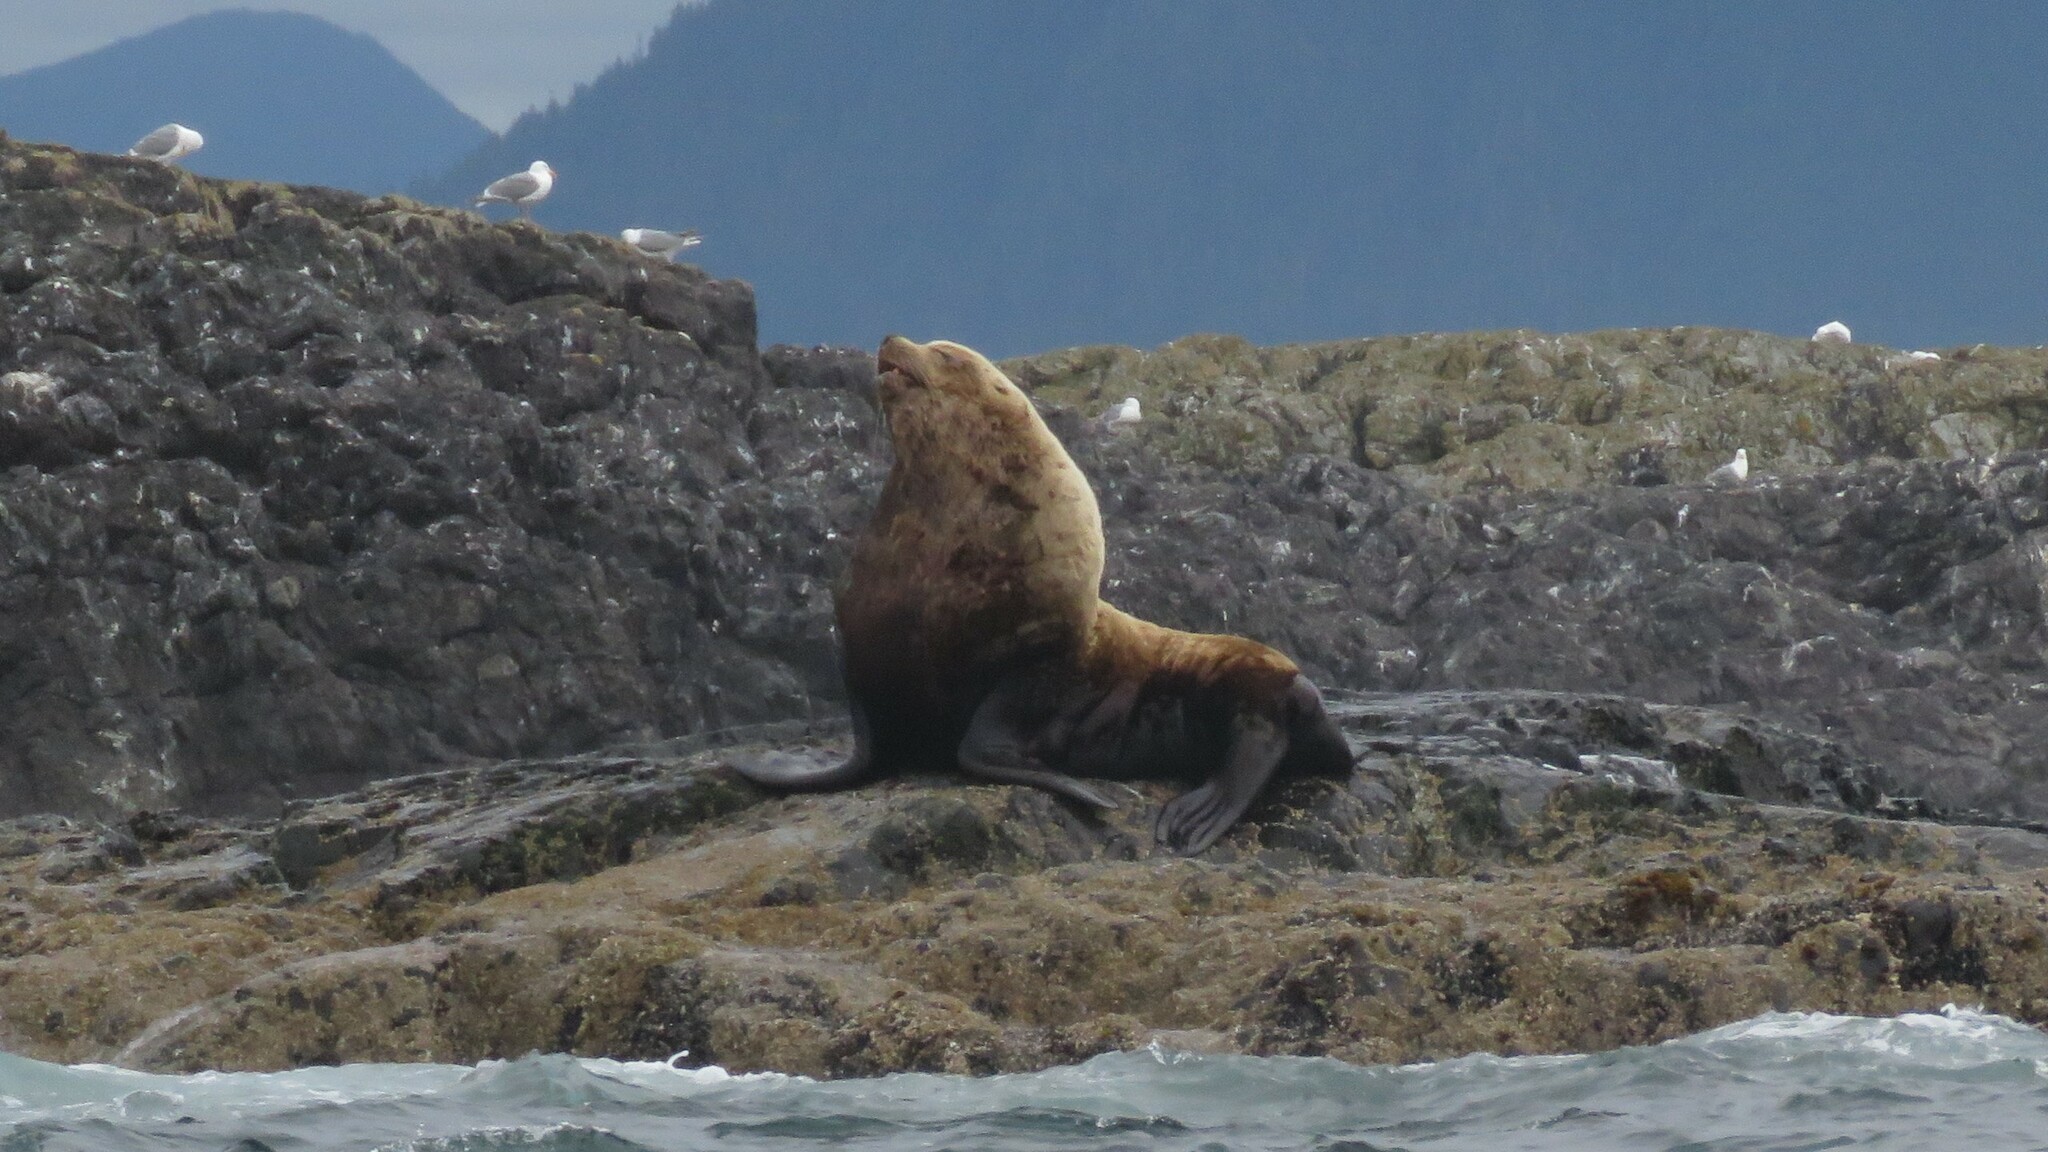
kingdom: Animalia
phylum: Chordata
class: Mammalia
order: Carnivora
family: Otariidae
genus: Eumetopias
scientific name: Eumetopias jubatus
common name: Steller sea lion
